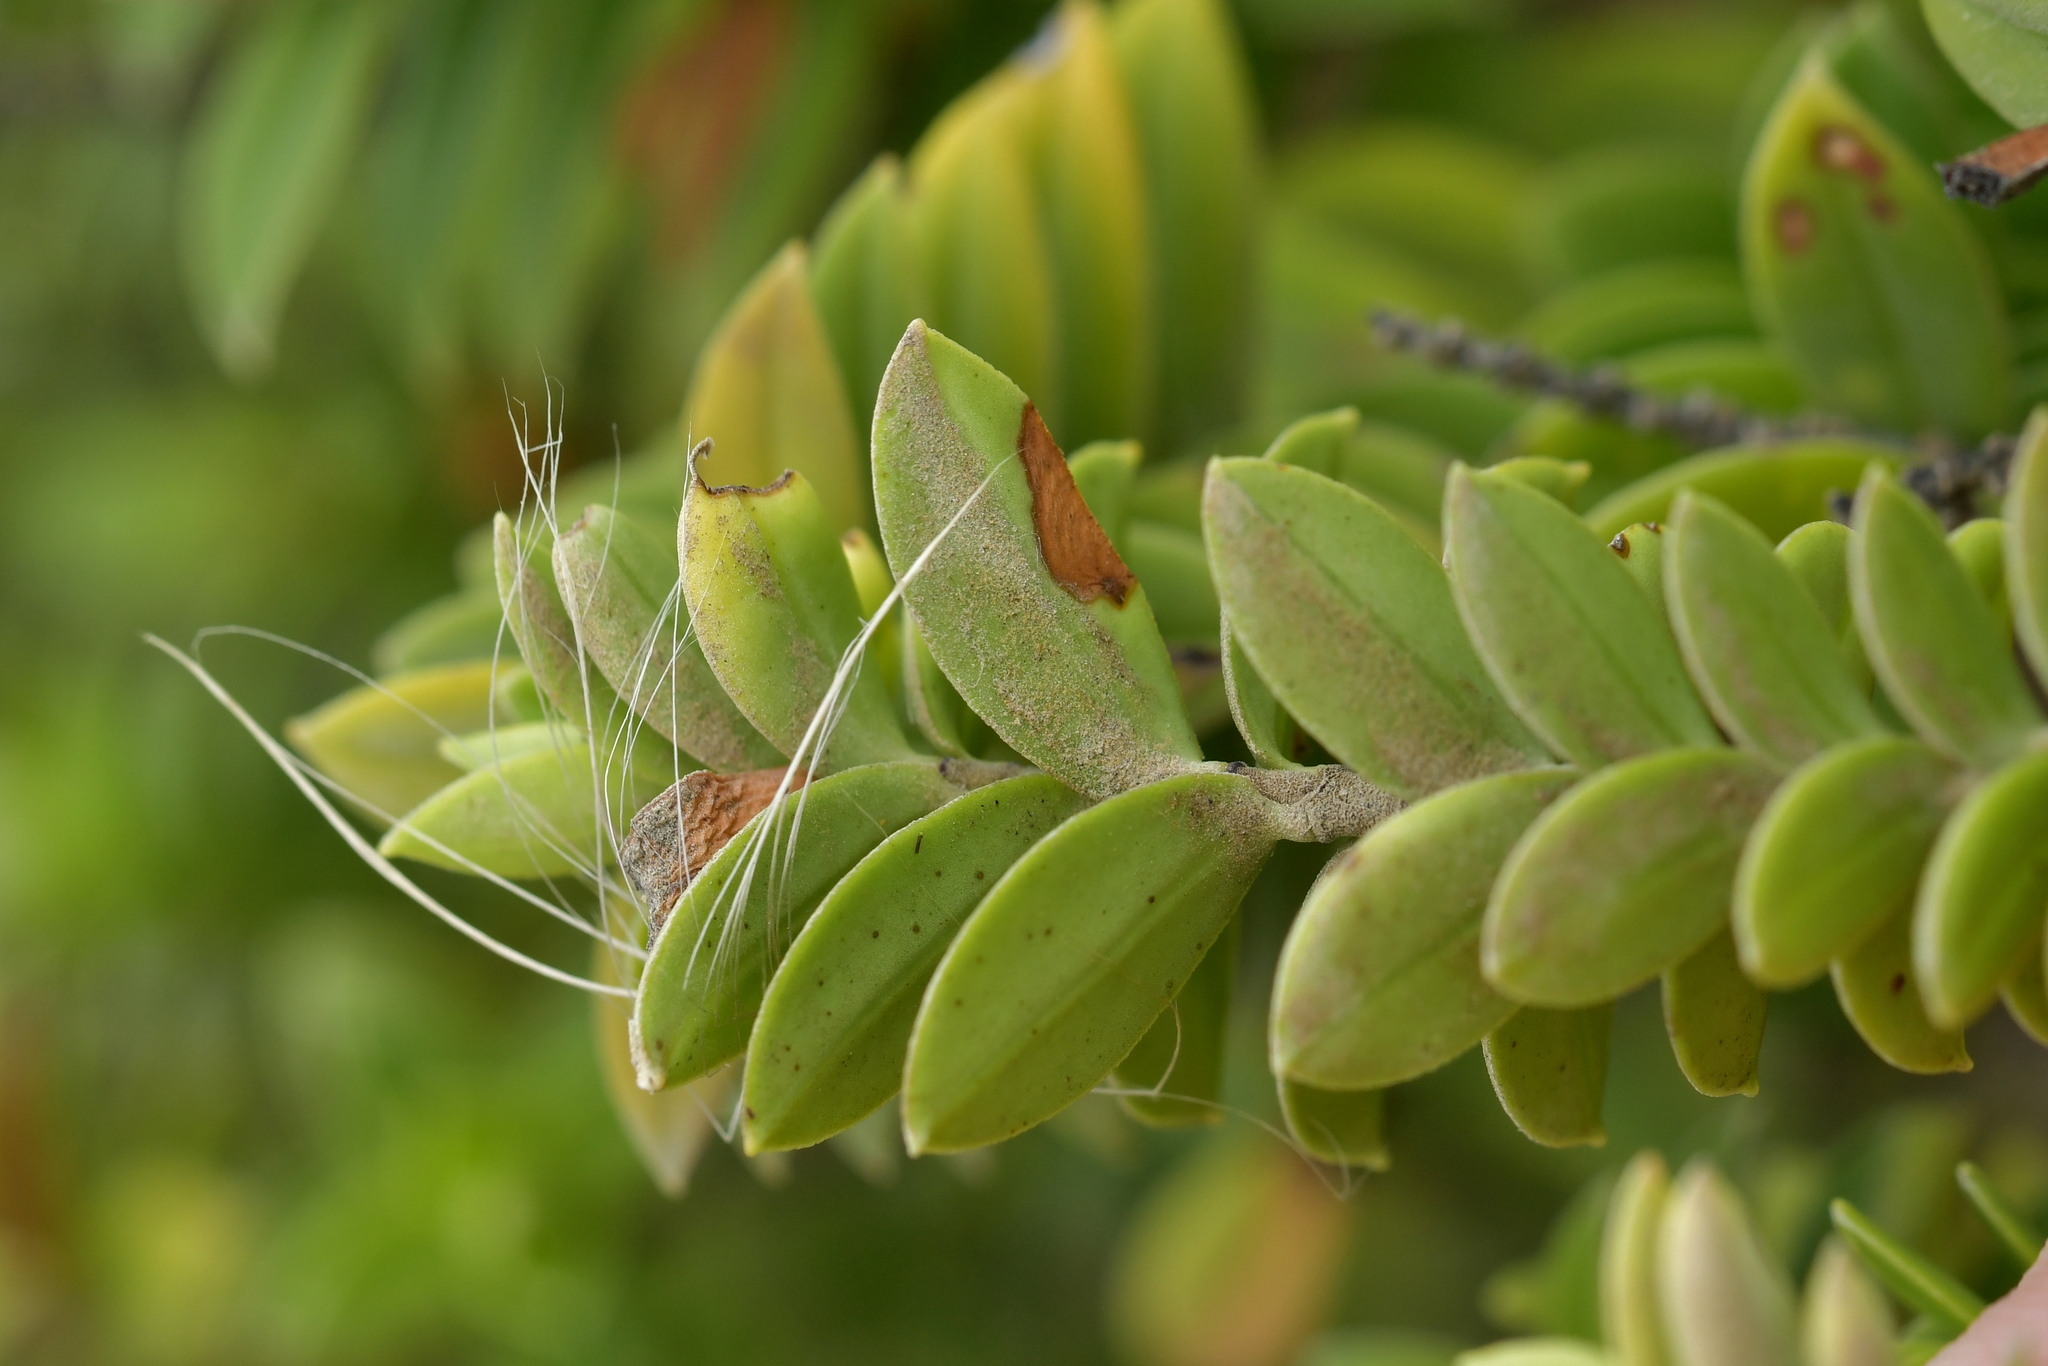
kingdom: Plantae
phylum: Tracheophyta
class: Magnoliopsida
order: Lamiales
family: Plantaginaceae
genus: Veronica
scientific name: Veronica elliptica
